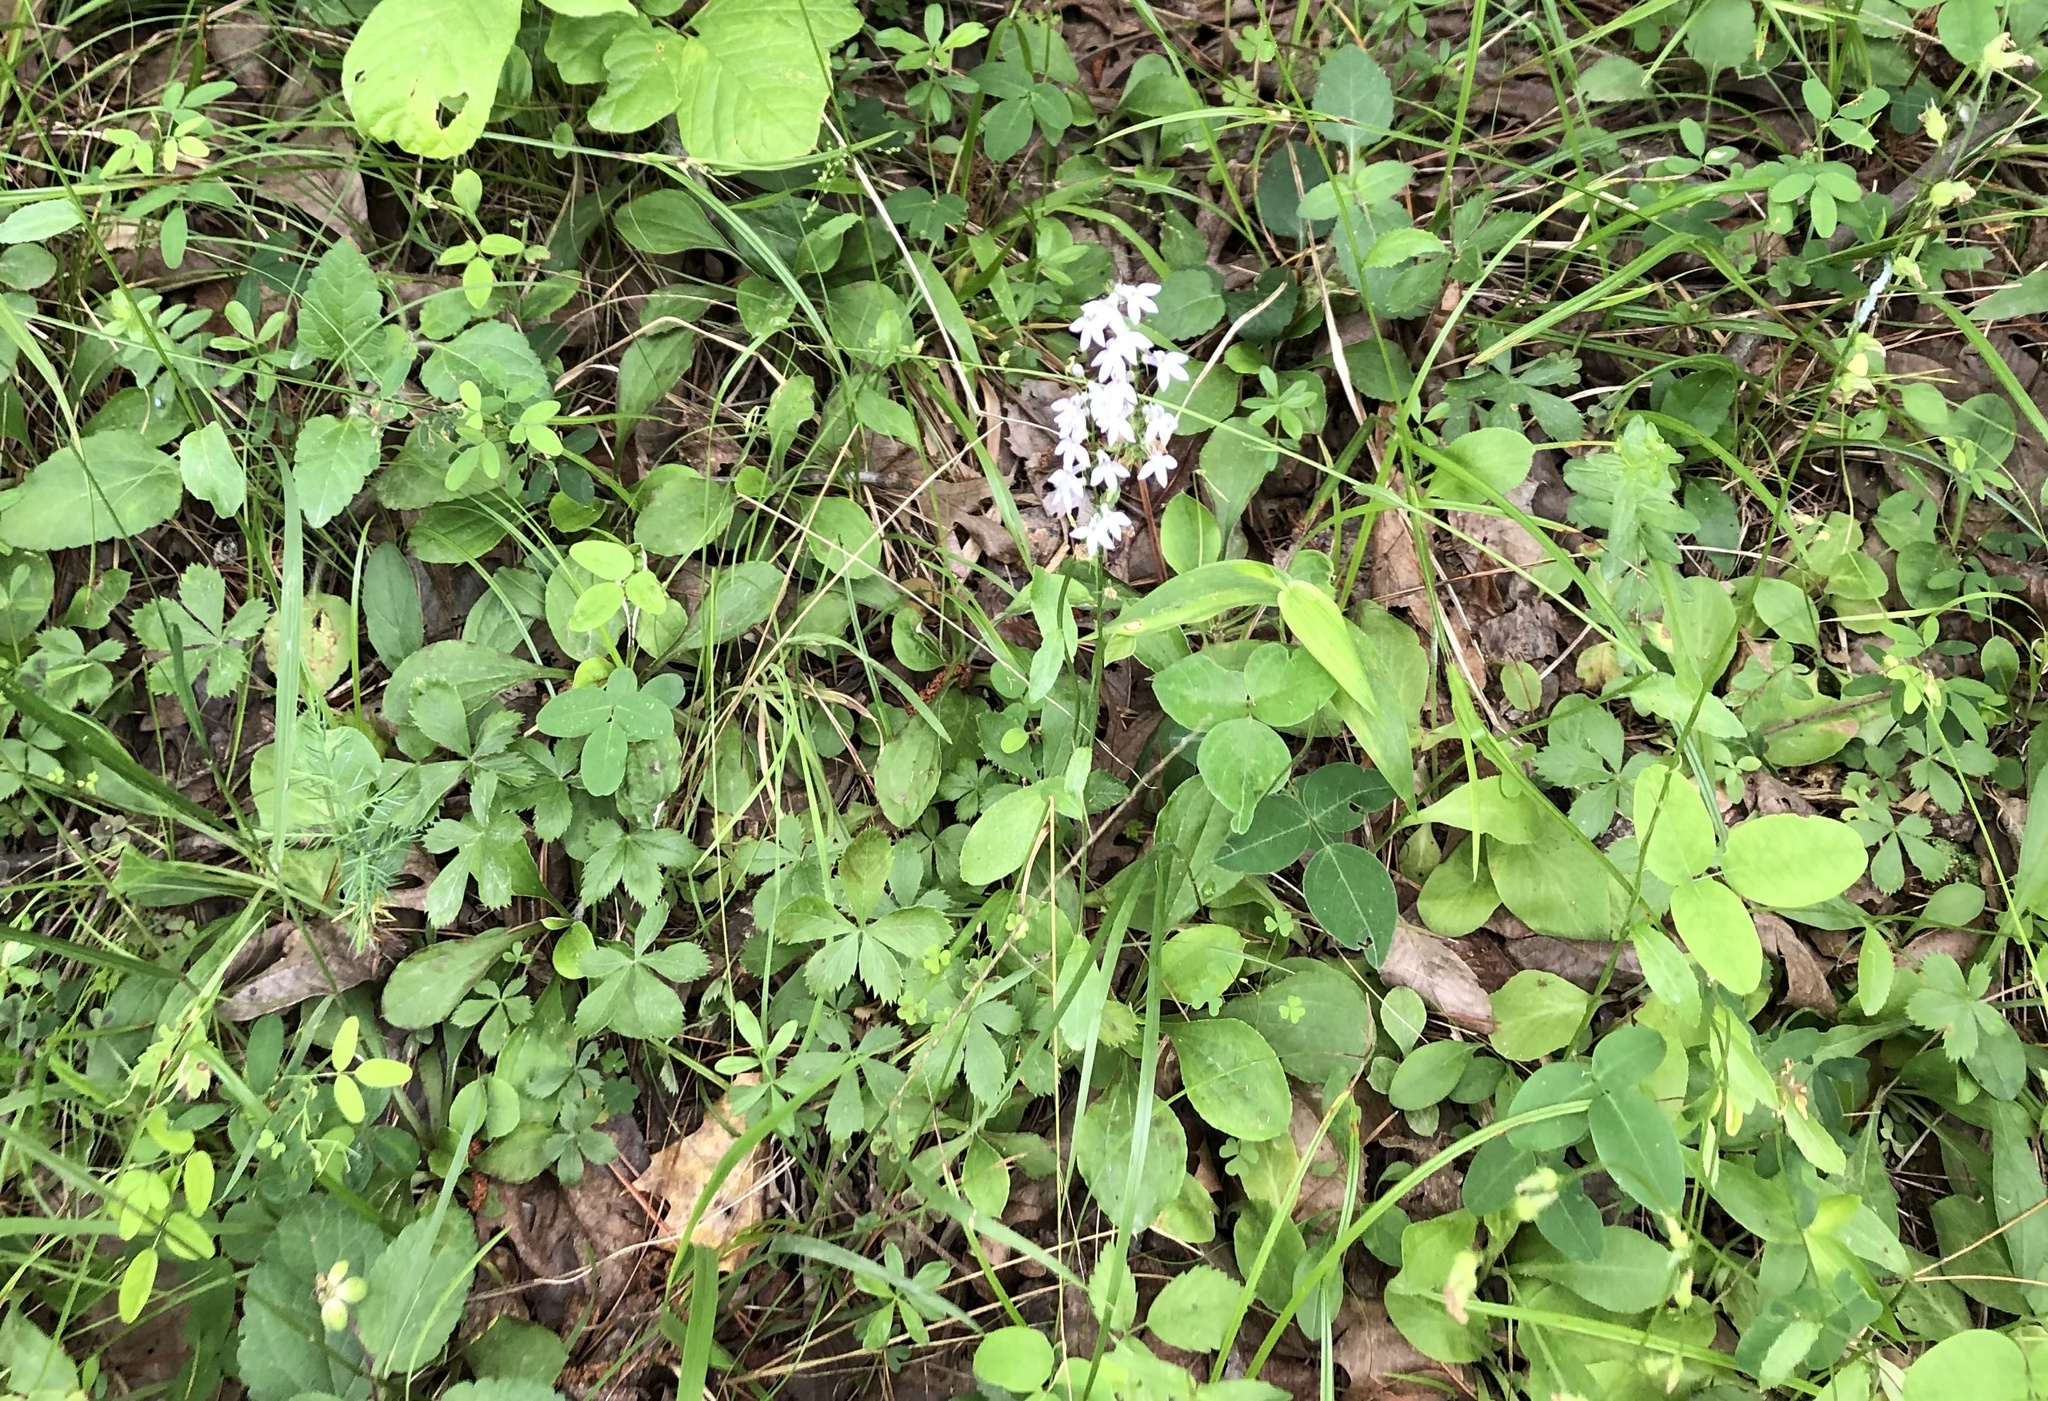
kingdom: Plantae
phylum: Tracheophyta
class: Magnoliopsida
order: Asterales
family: Campanulaceae
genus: Lobelia
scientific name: Lobelia spicata
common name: Pale-spike lobelia
